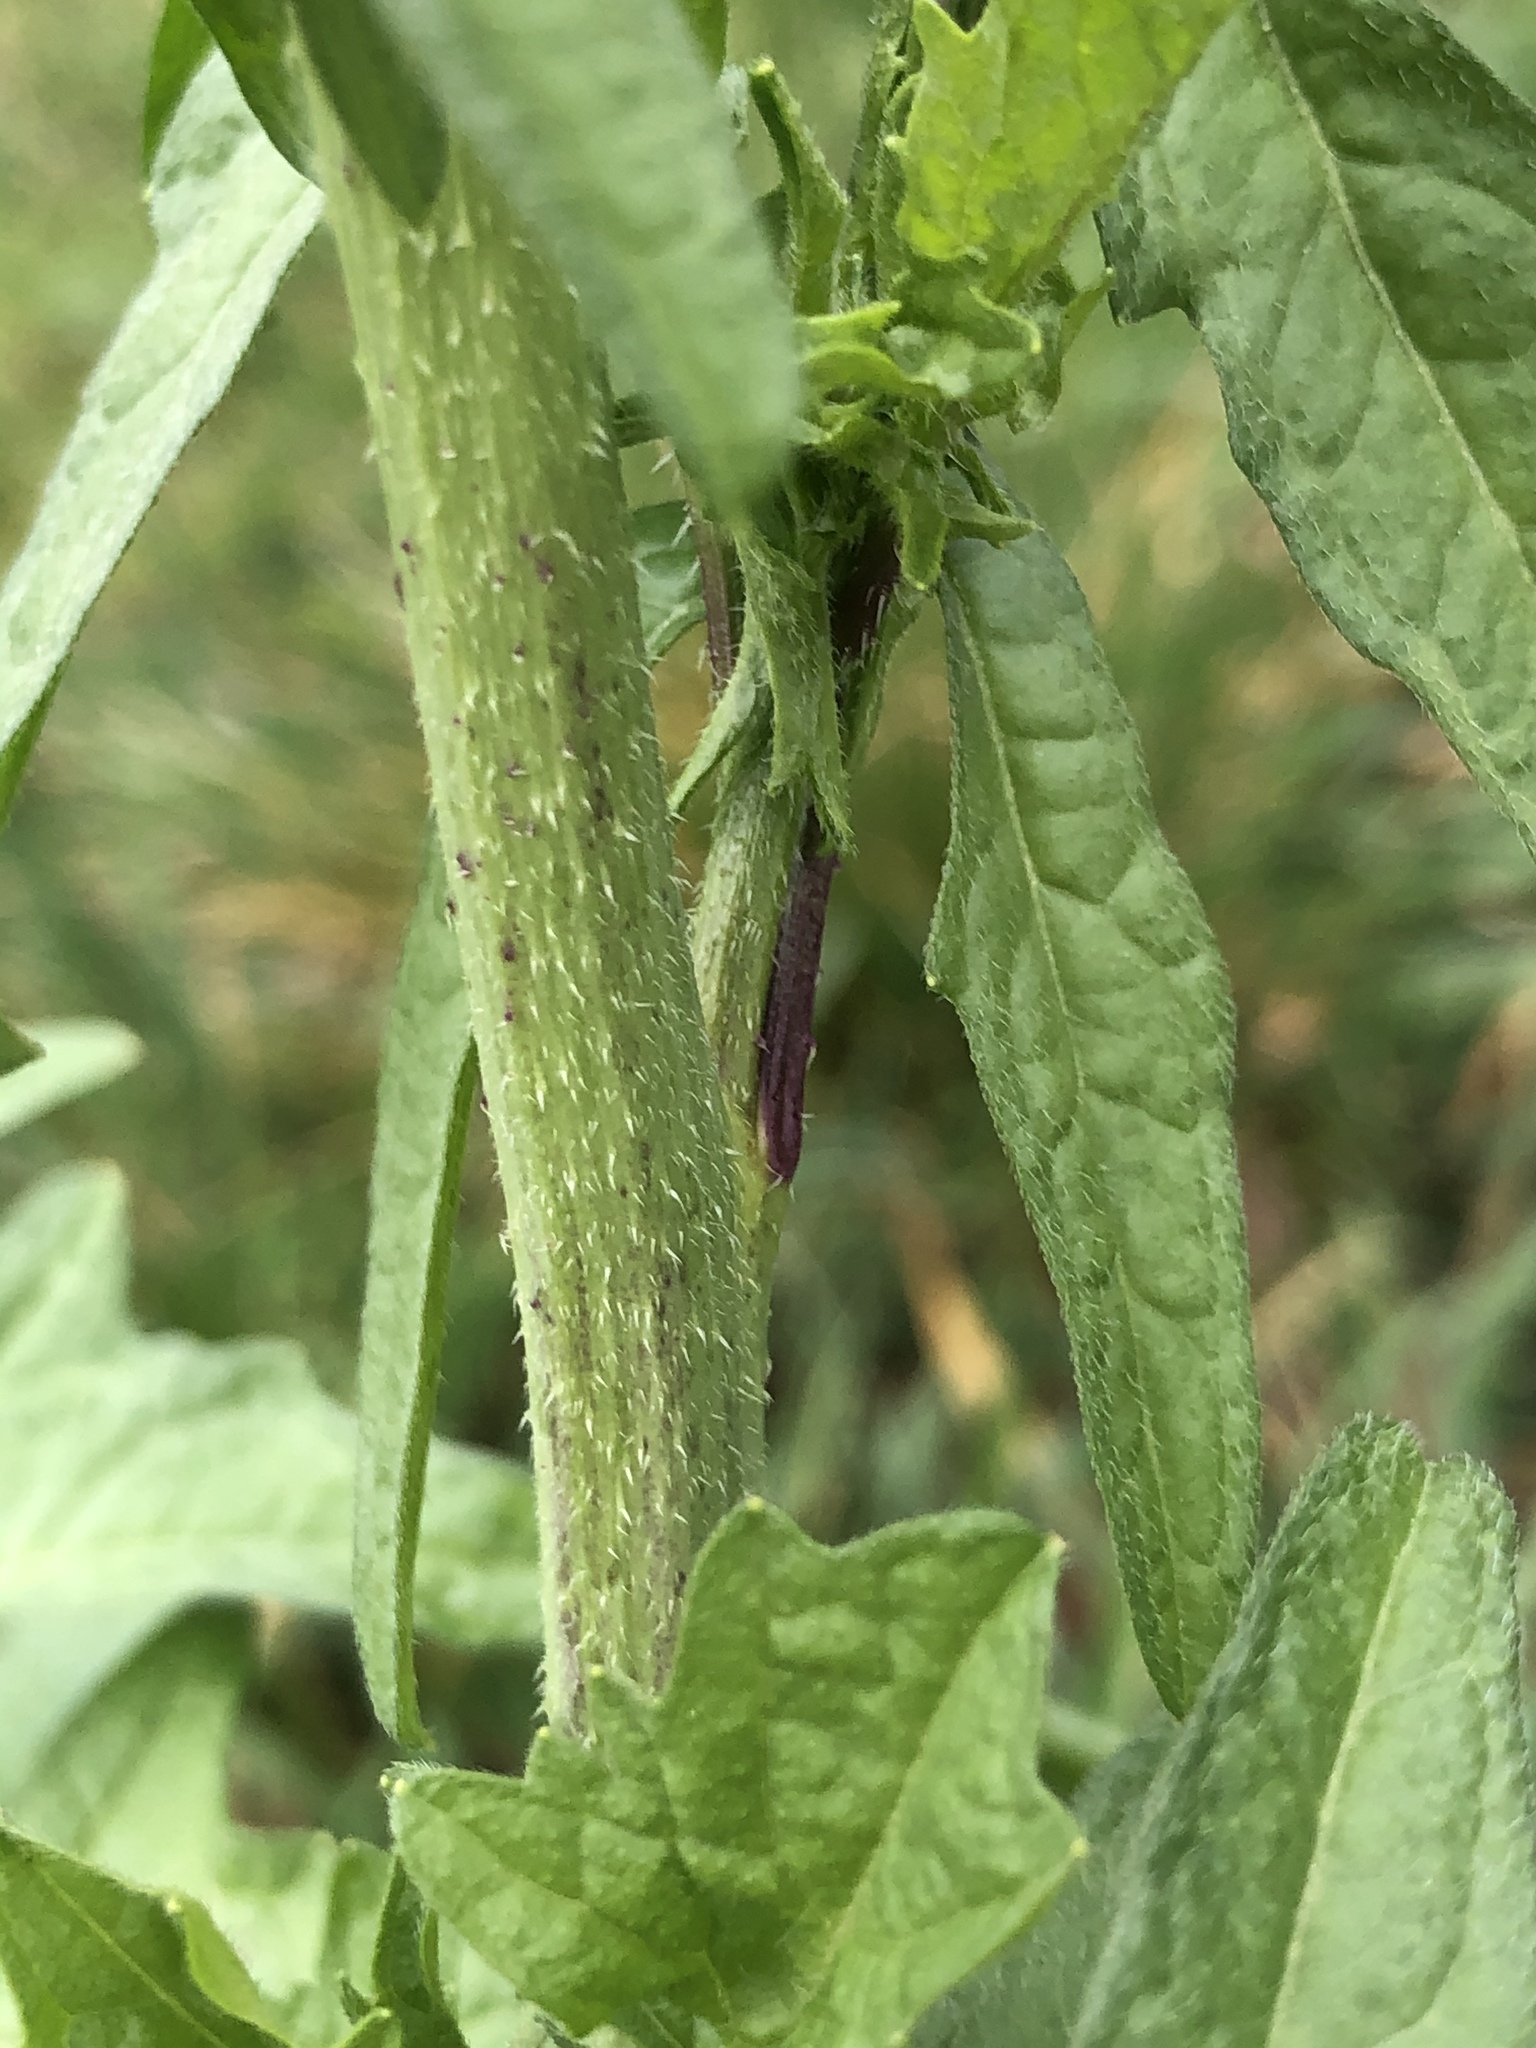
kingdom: Plantae
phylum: Tracheophyta
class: Magnoliopsida
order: Brassicales
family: Brassicaceae
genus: Sisymbrium
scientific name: Sisymbrium officinale
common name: Hedge mustard
